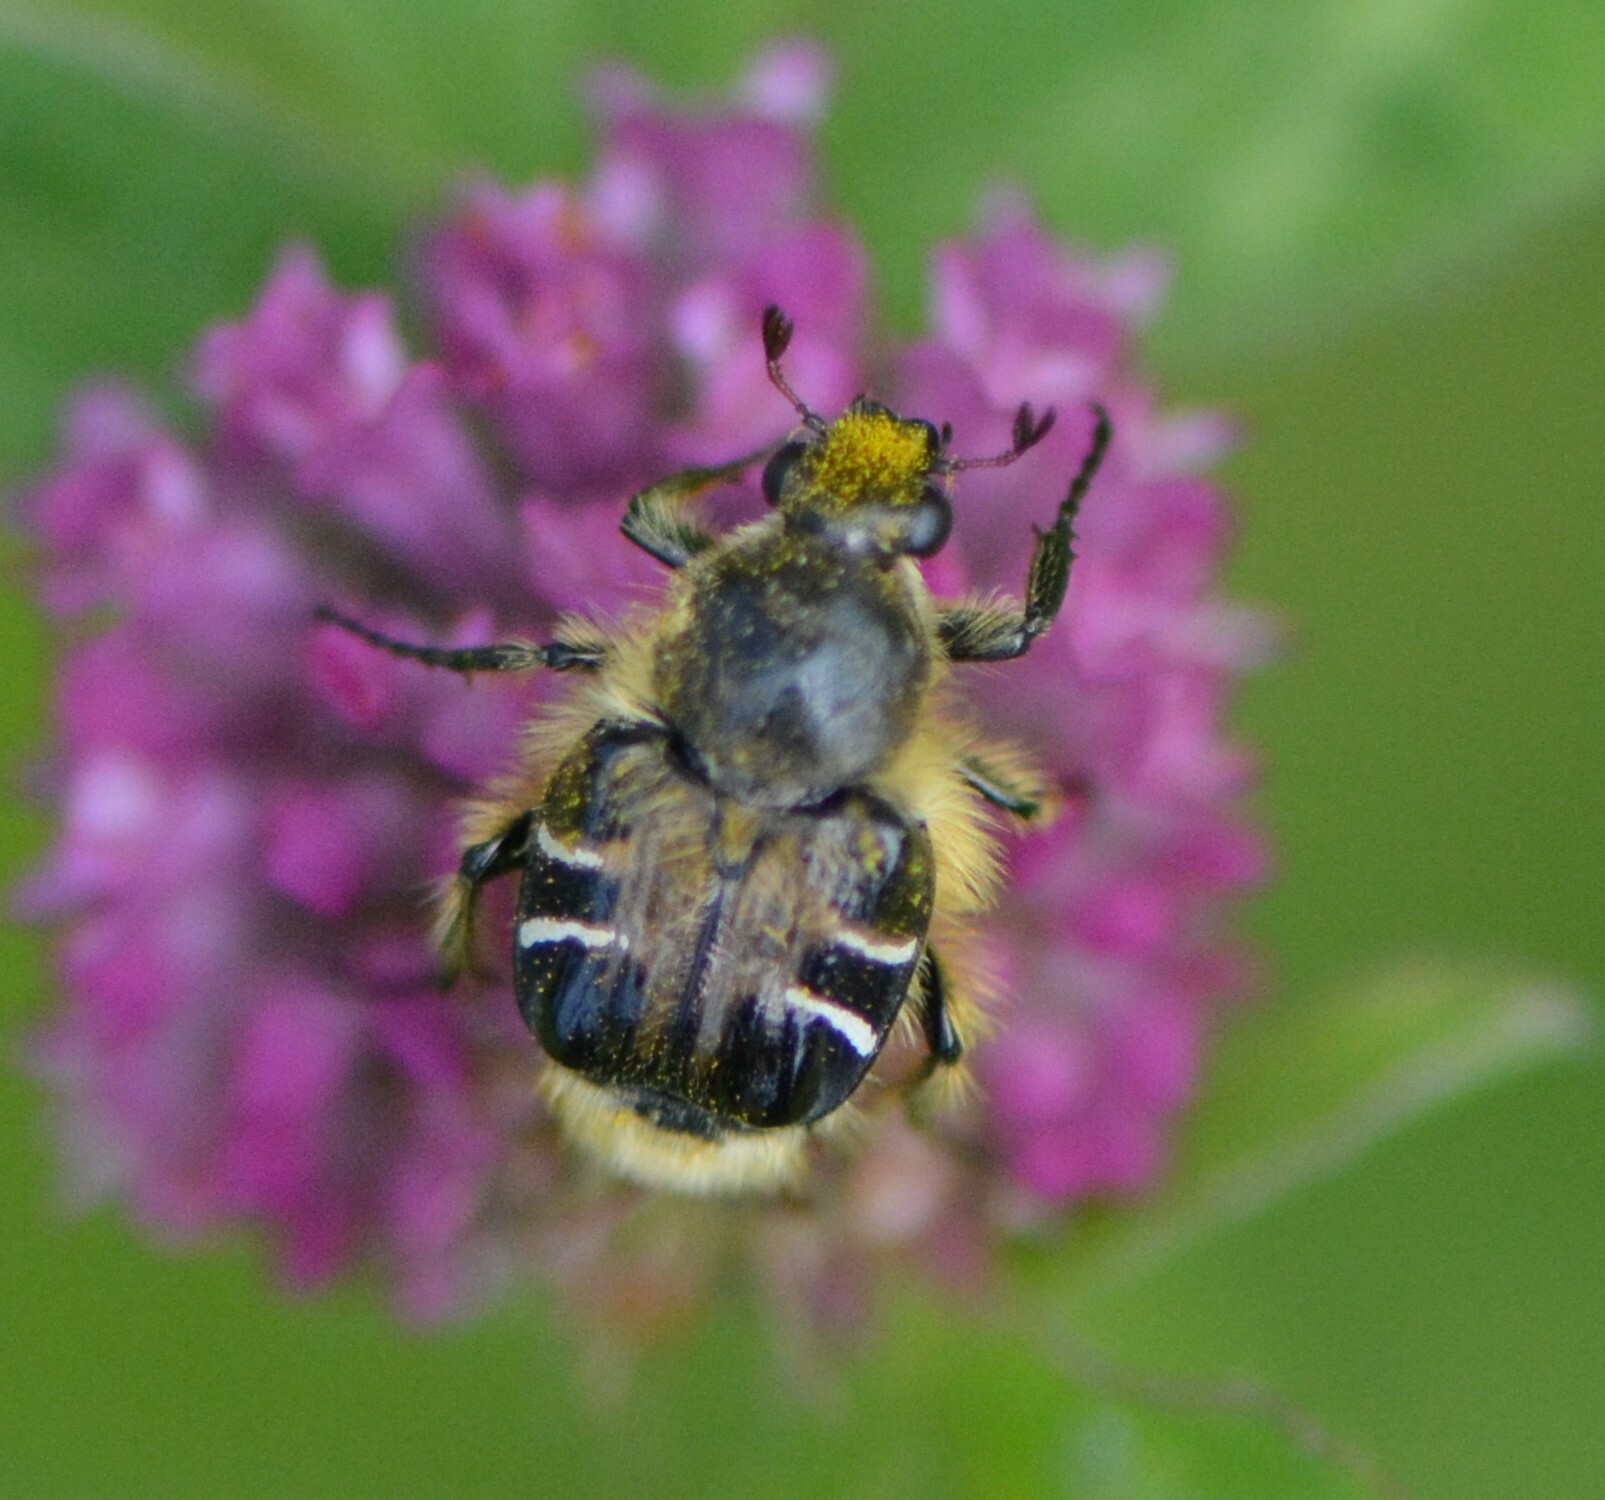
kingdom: Animalia
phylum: Arthropoda
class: Insecta
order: Coleoptera
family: Scarabaeidae
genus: Trichiotinus
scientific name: Trichiotinus assimilis
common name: Bee-mimic beetle
